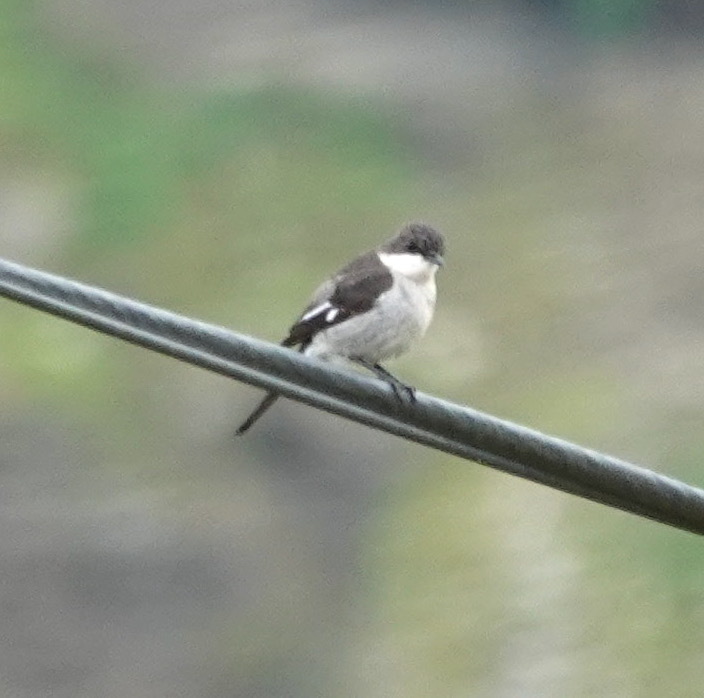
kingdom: Animalia
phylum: Chordata
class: Aves
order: Passeriformes
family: Muscicapidae
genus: Sigelus
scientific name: Sigelus silens
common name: Fiscal flycatcher
